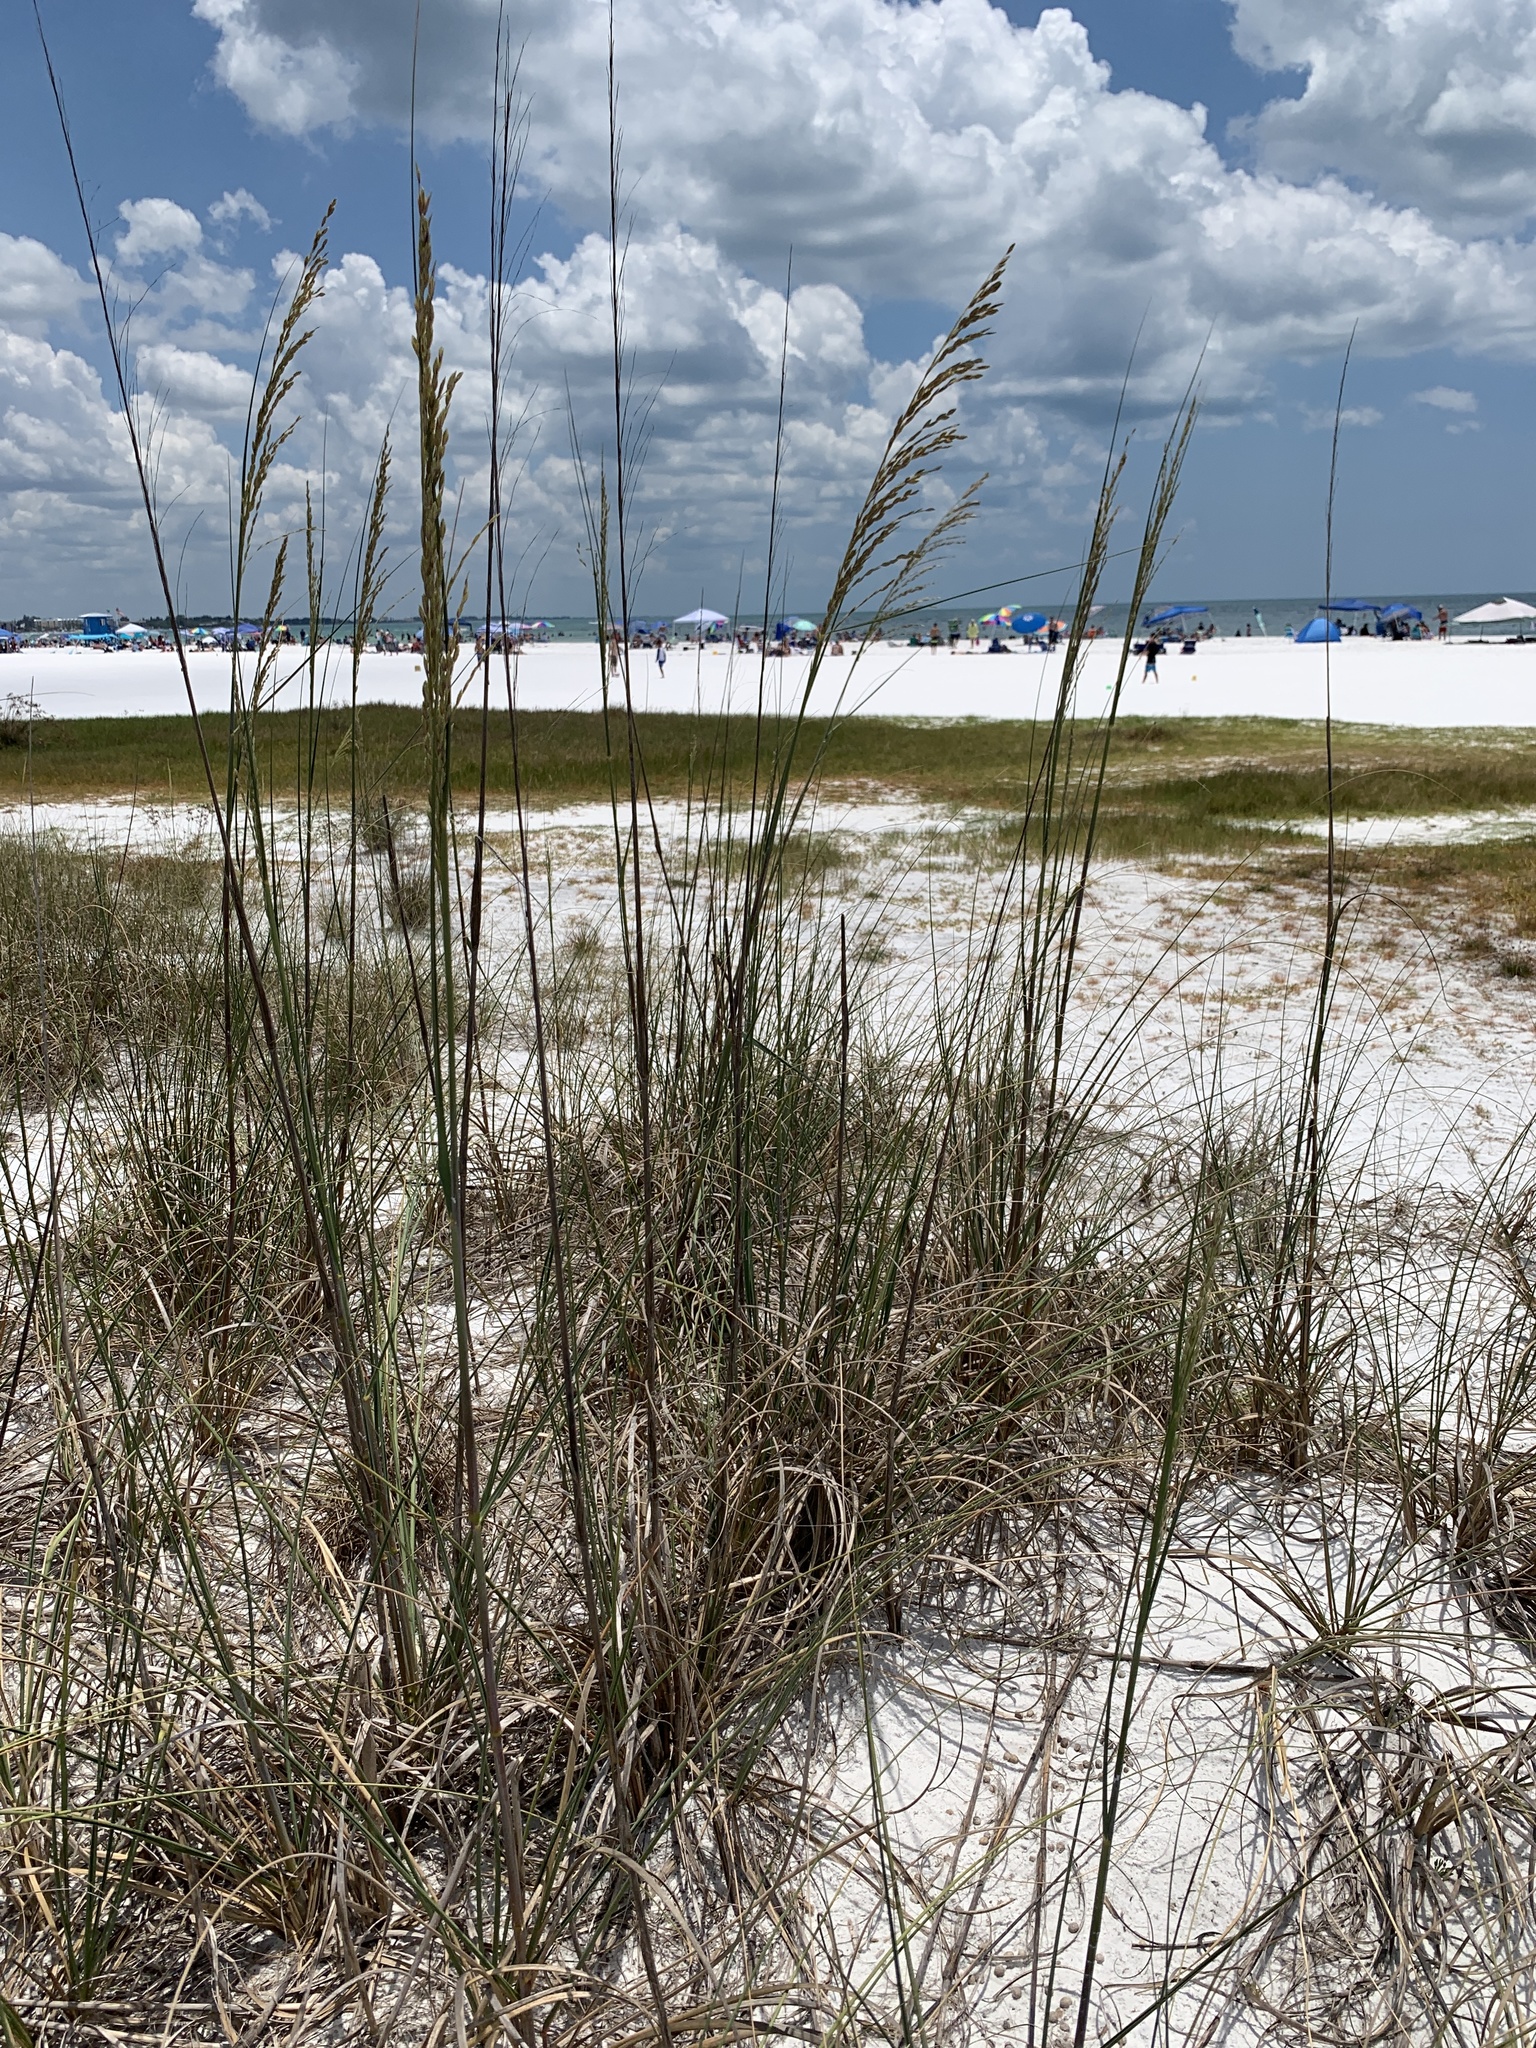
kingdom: Plantae
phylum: Tracheophyta
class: Liliopsida
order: Poales
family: Poaceae
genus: Uniola
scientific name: Uniola paniculata
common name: Seaside-oats
